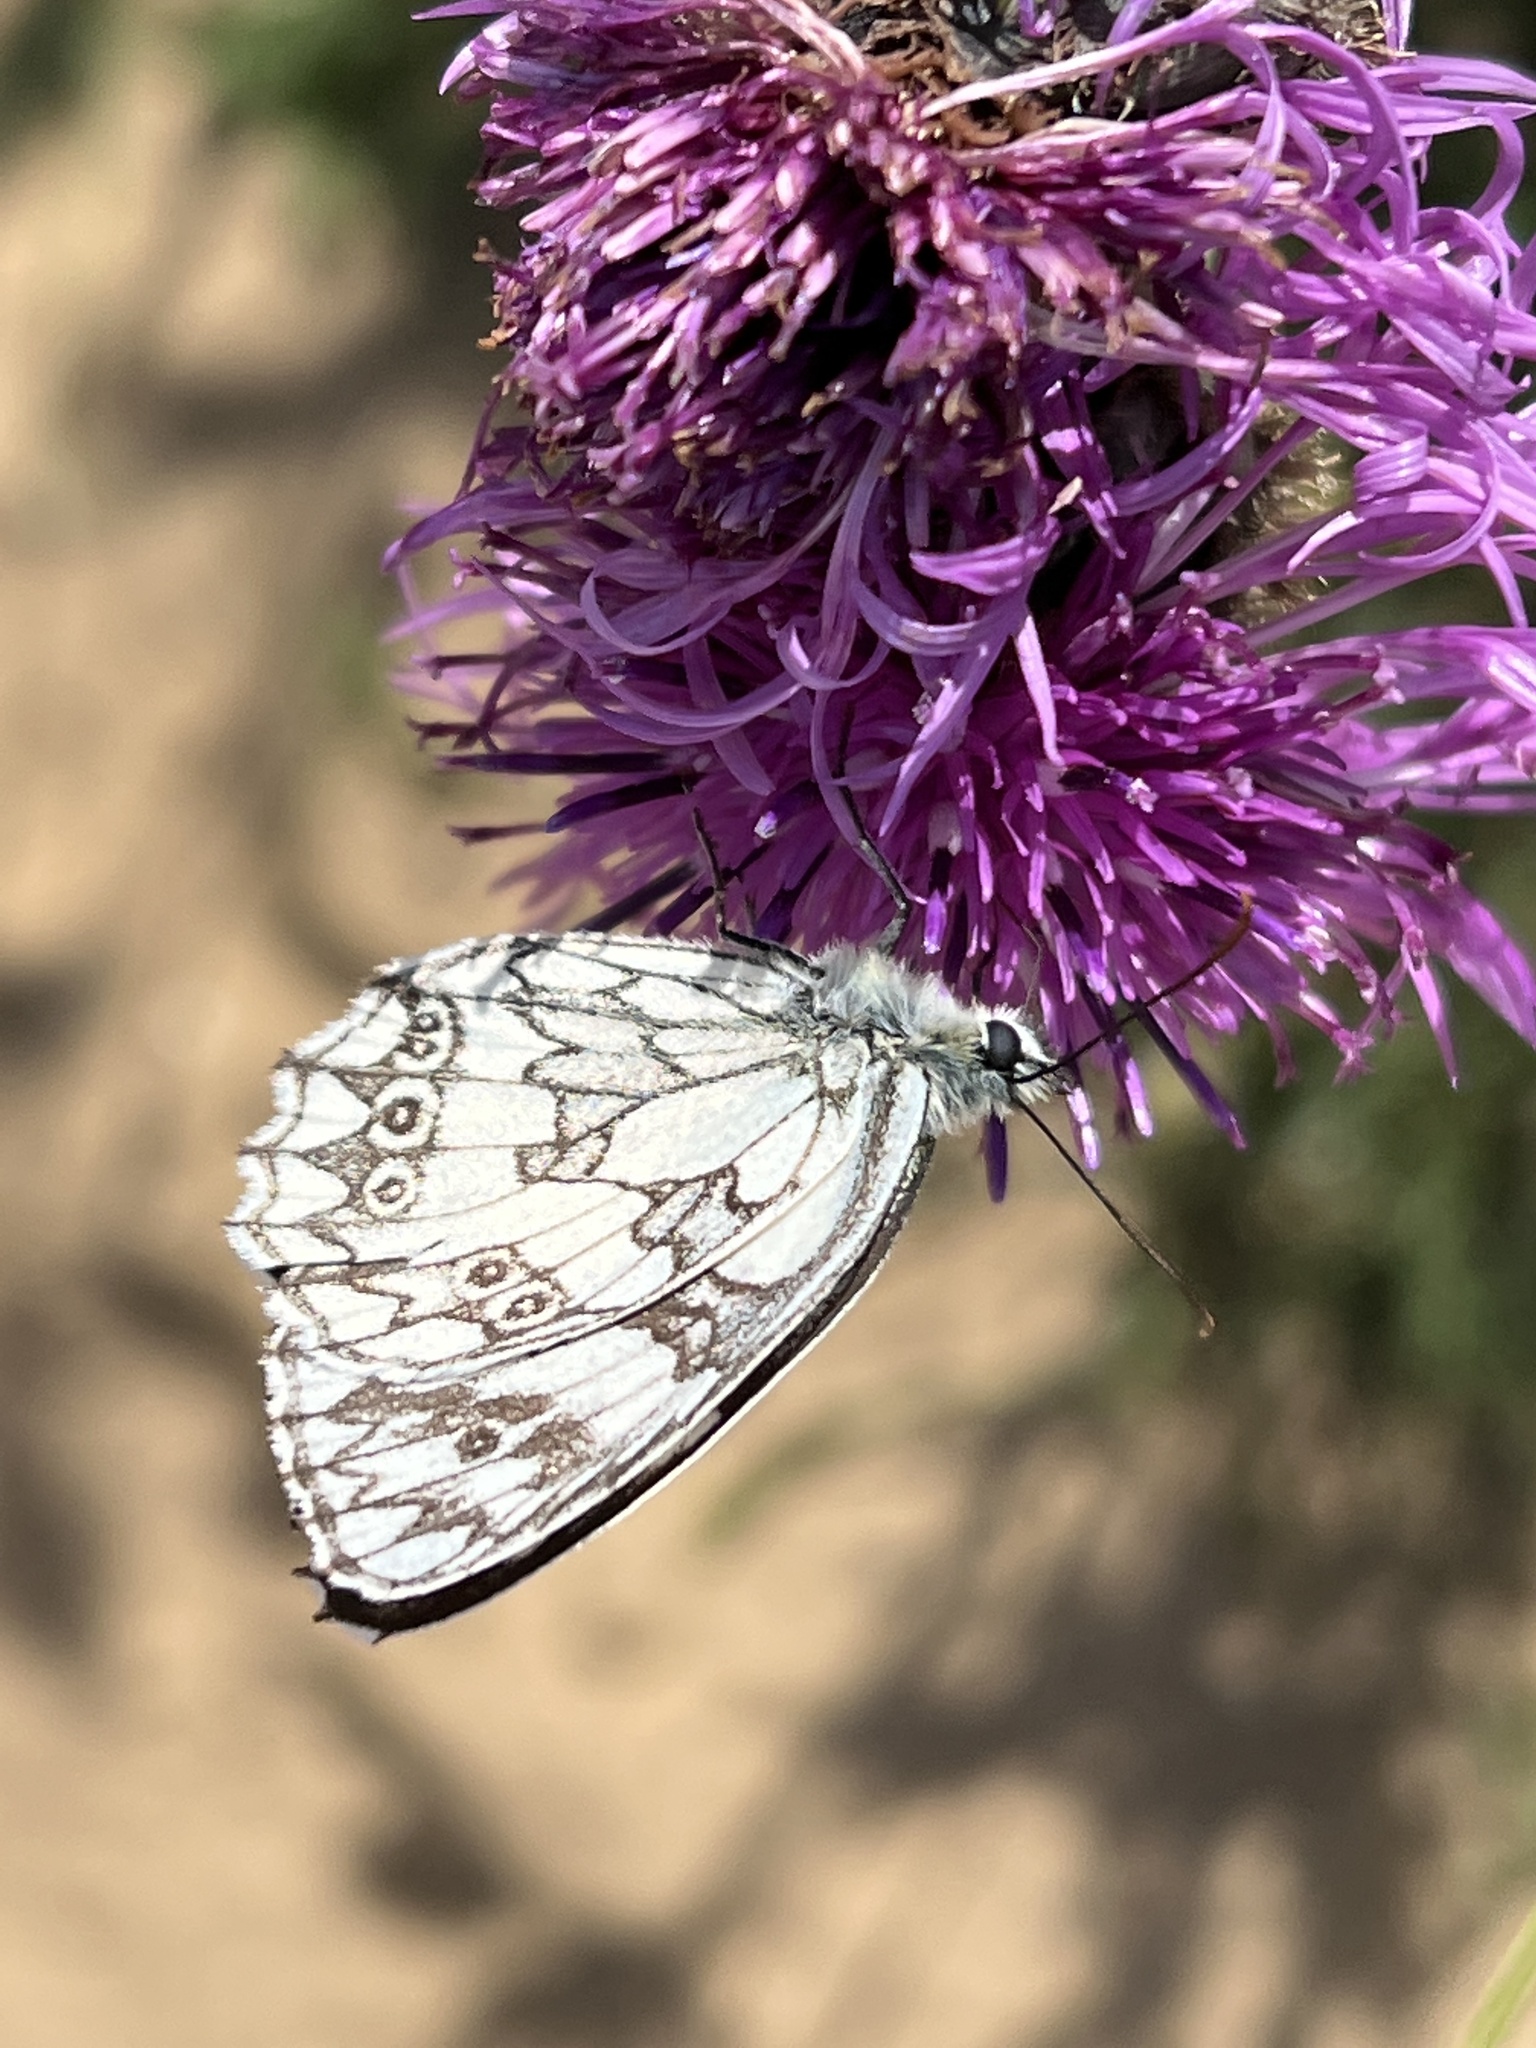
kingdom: Animalia
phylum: Arthropoda
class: Insecta
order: Lepidoptera
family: Nymphalidae
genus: Melanargia
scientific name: Melanargia galathea
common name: Marbled white
